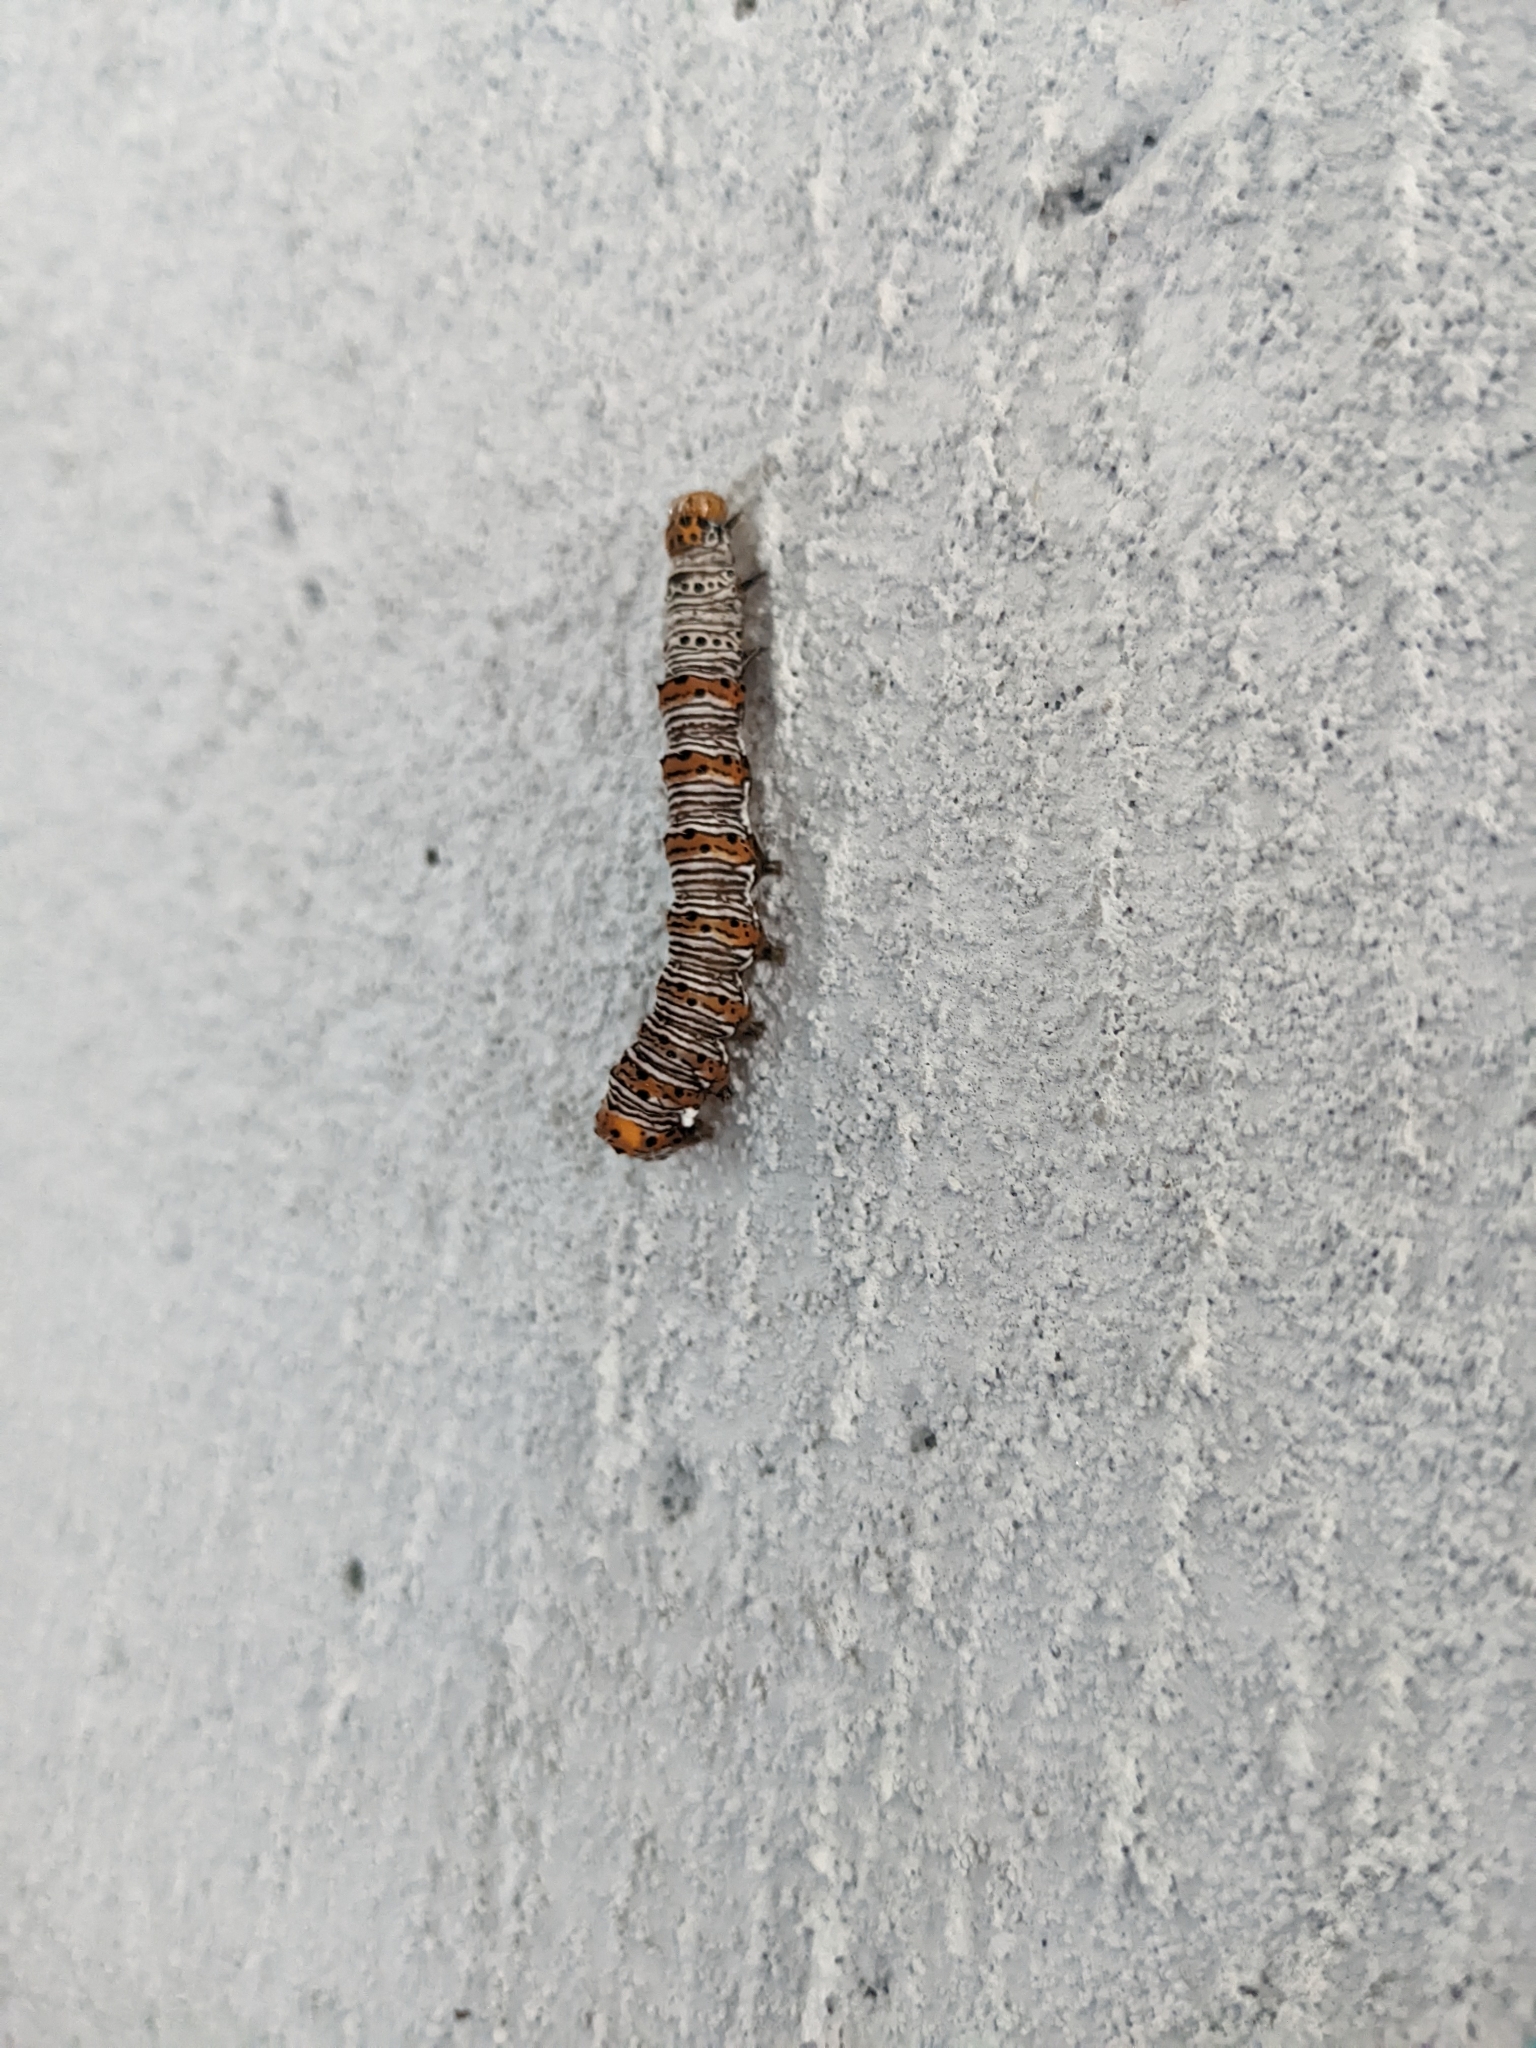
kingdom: Animalia
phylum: Arthropoda
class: Insecta
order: Lepidoptera
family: Noctuidae
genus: Alypia
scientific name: Alypia octomaculata
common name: Eight-spotted forester
